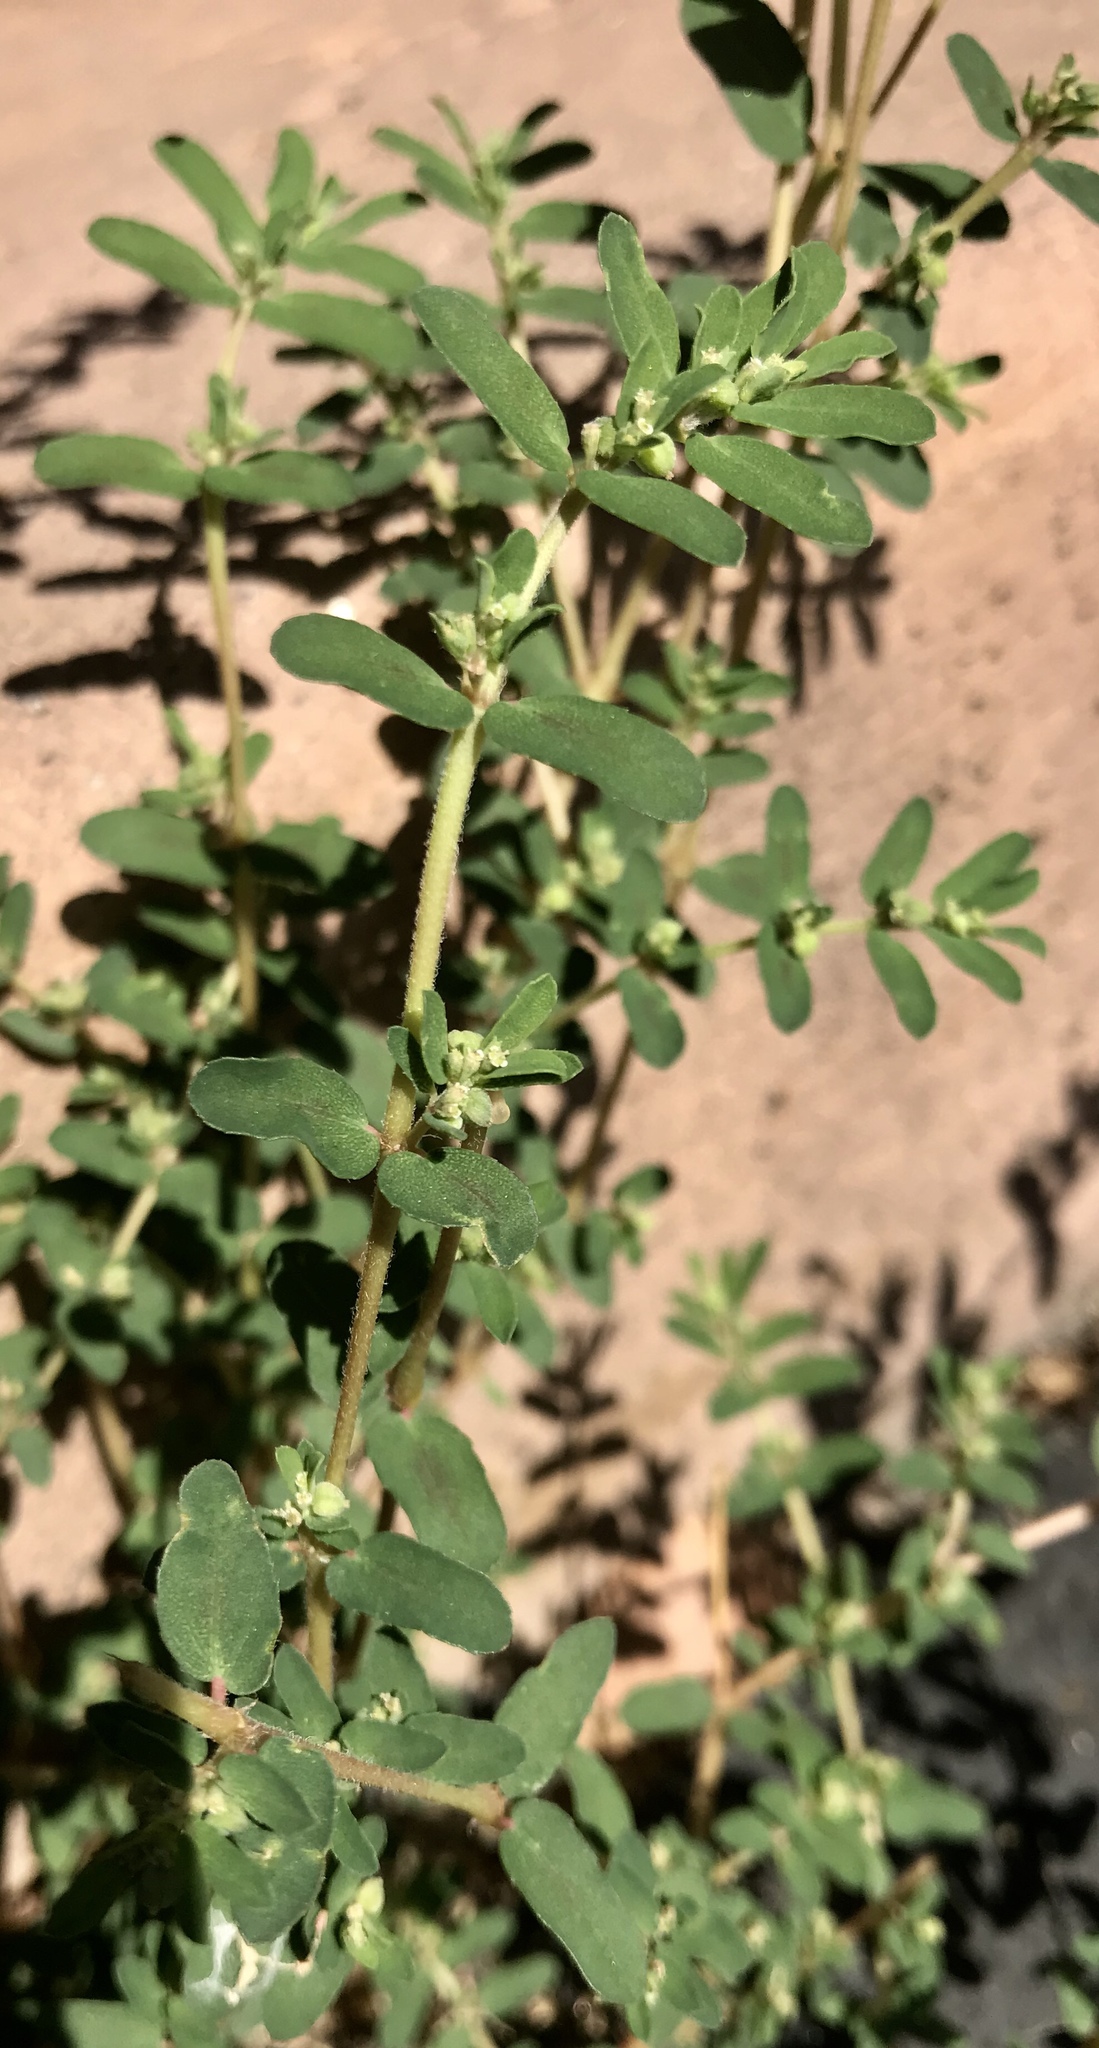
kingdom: Plantae
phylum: Tracheophyta
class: Magnoliopsida
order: Malpighiales
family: Euphorbiaceae
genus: Euphorbia
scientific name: Euphorbia maculata
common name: Spotted spurge
